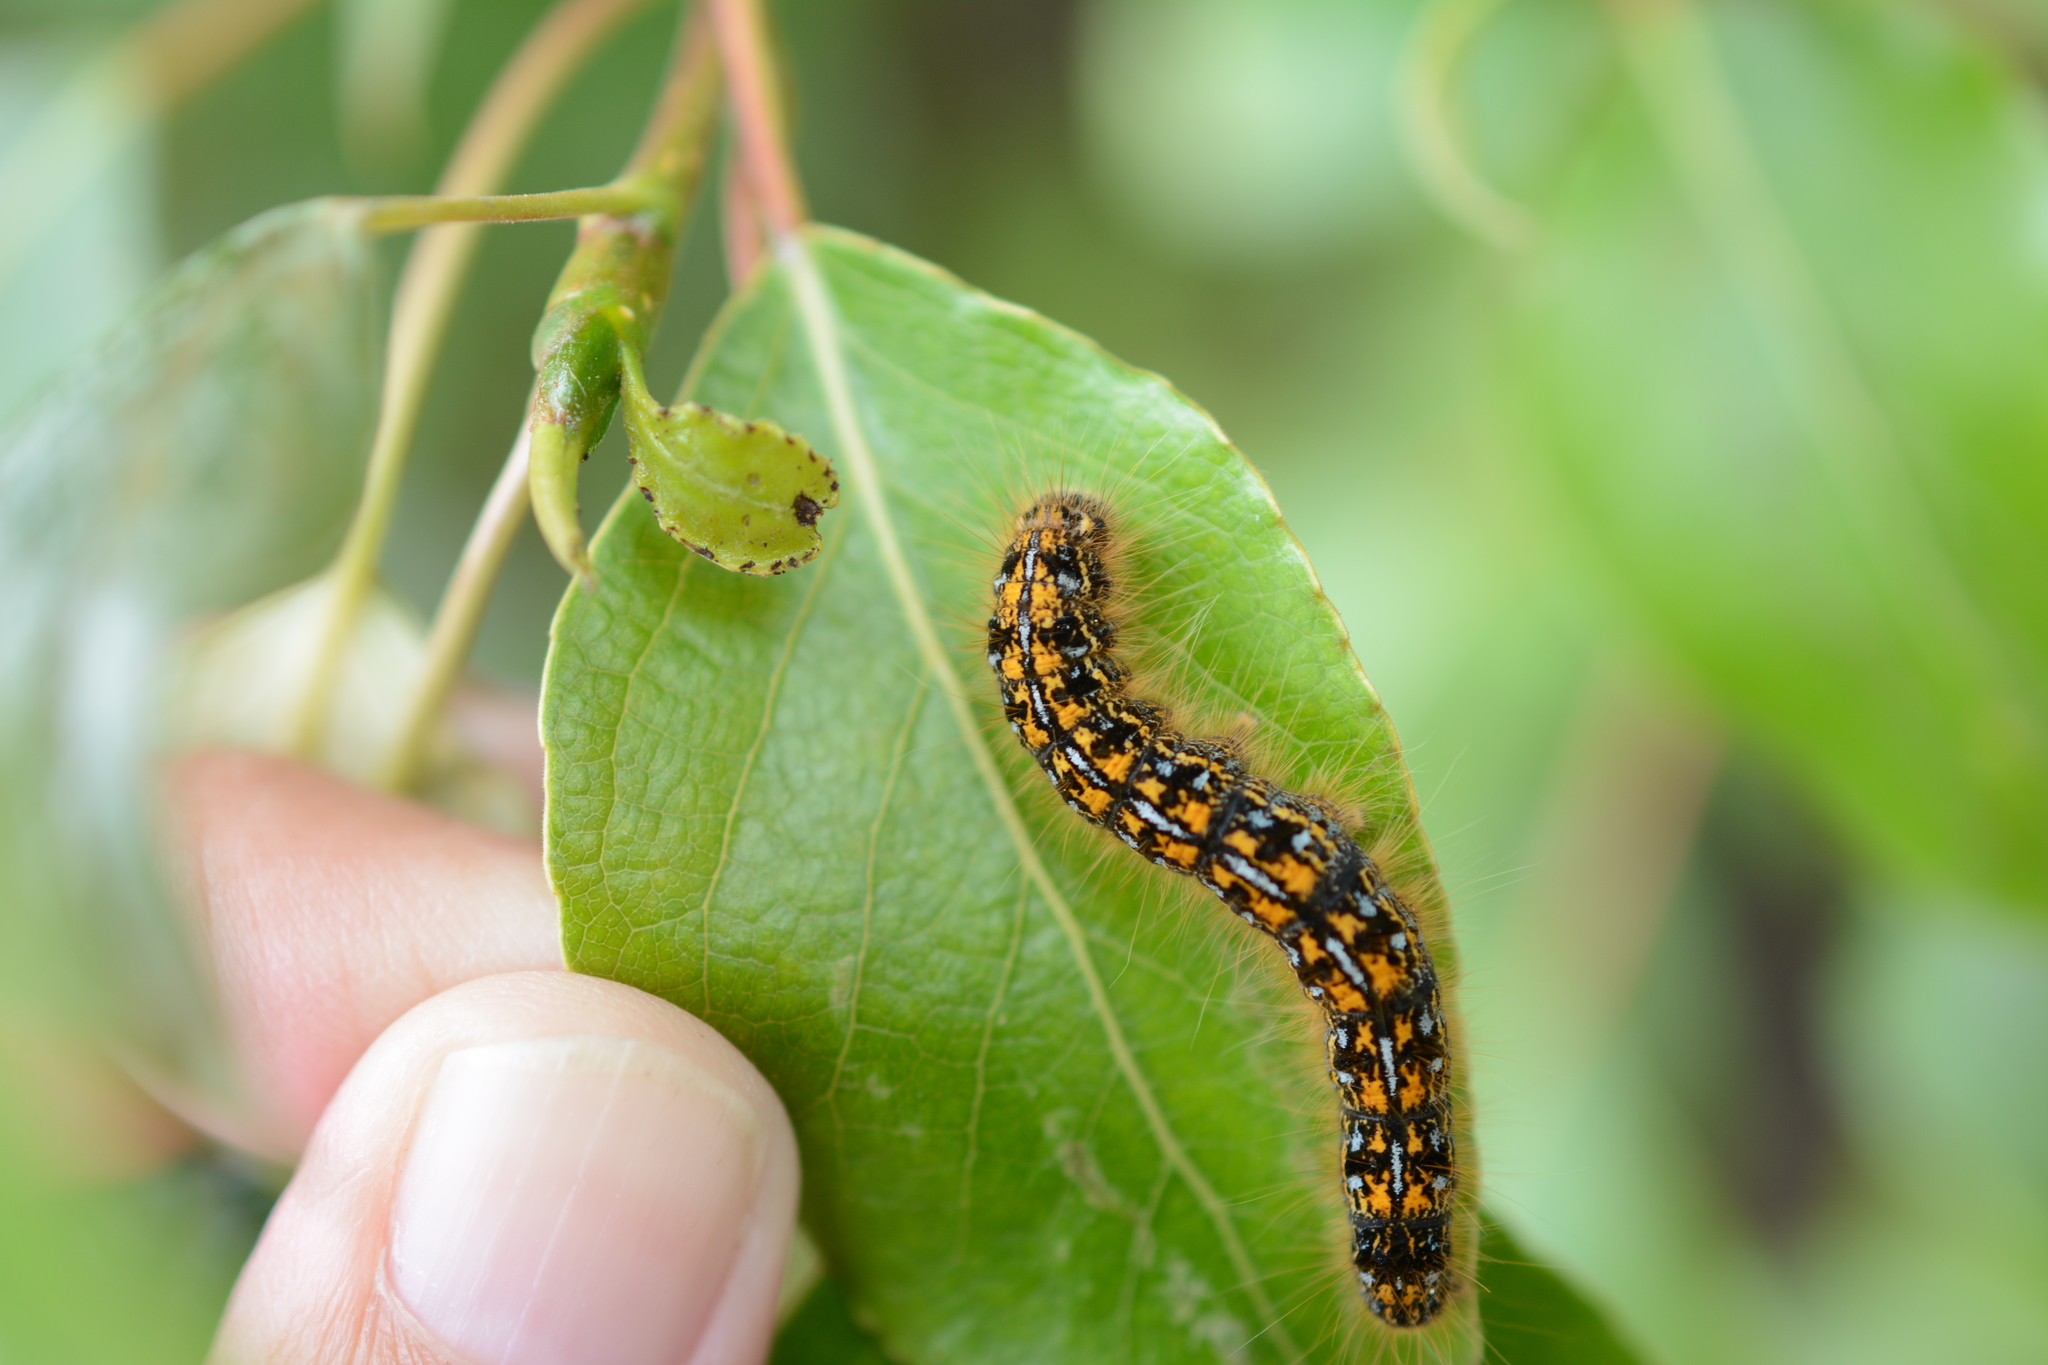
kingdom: Animalia
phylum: Arthropoda
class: Insecta
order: Lepidoptera
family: Lasiocampidae
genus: Malacosoma
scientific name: Malacosoma californica
